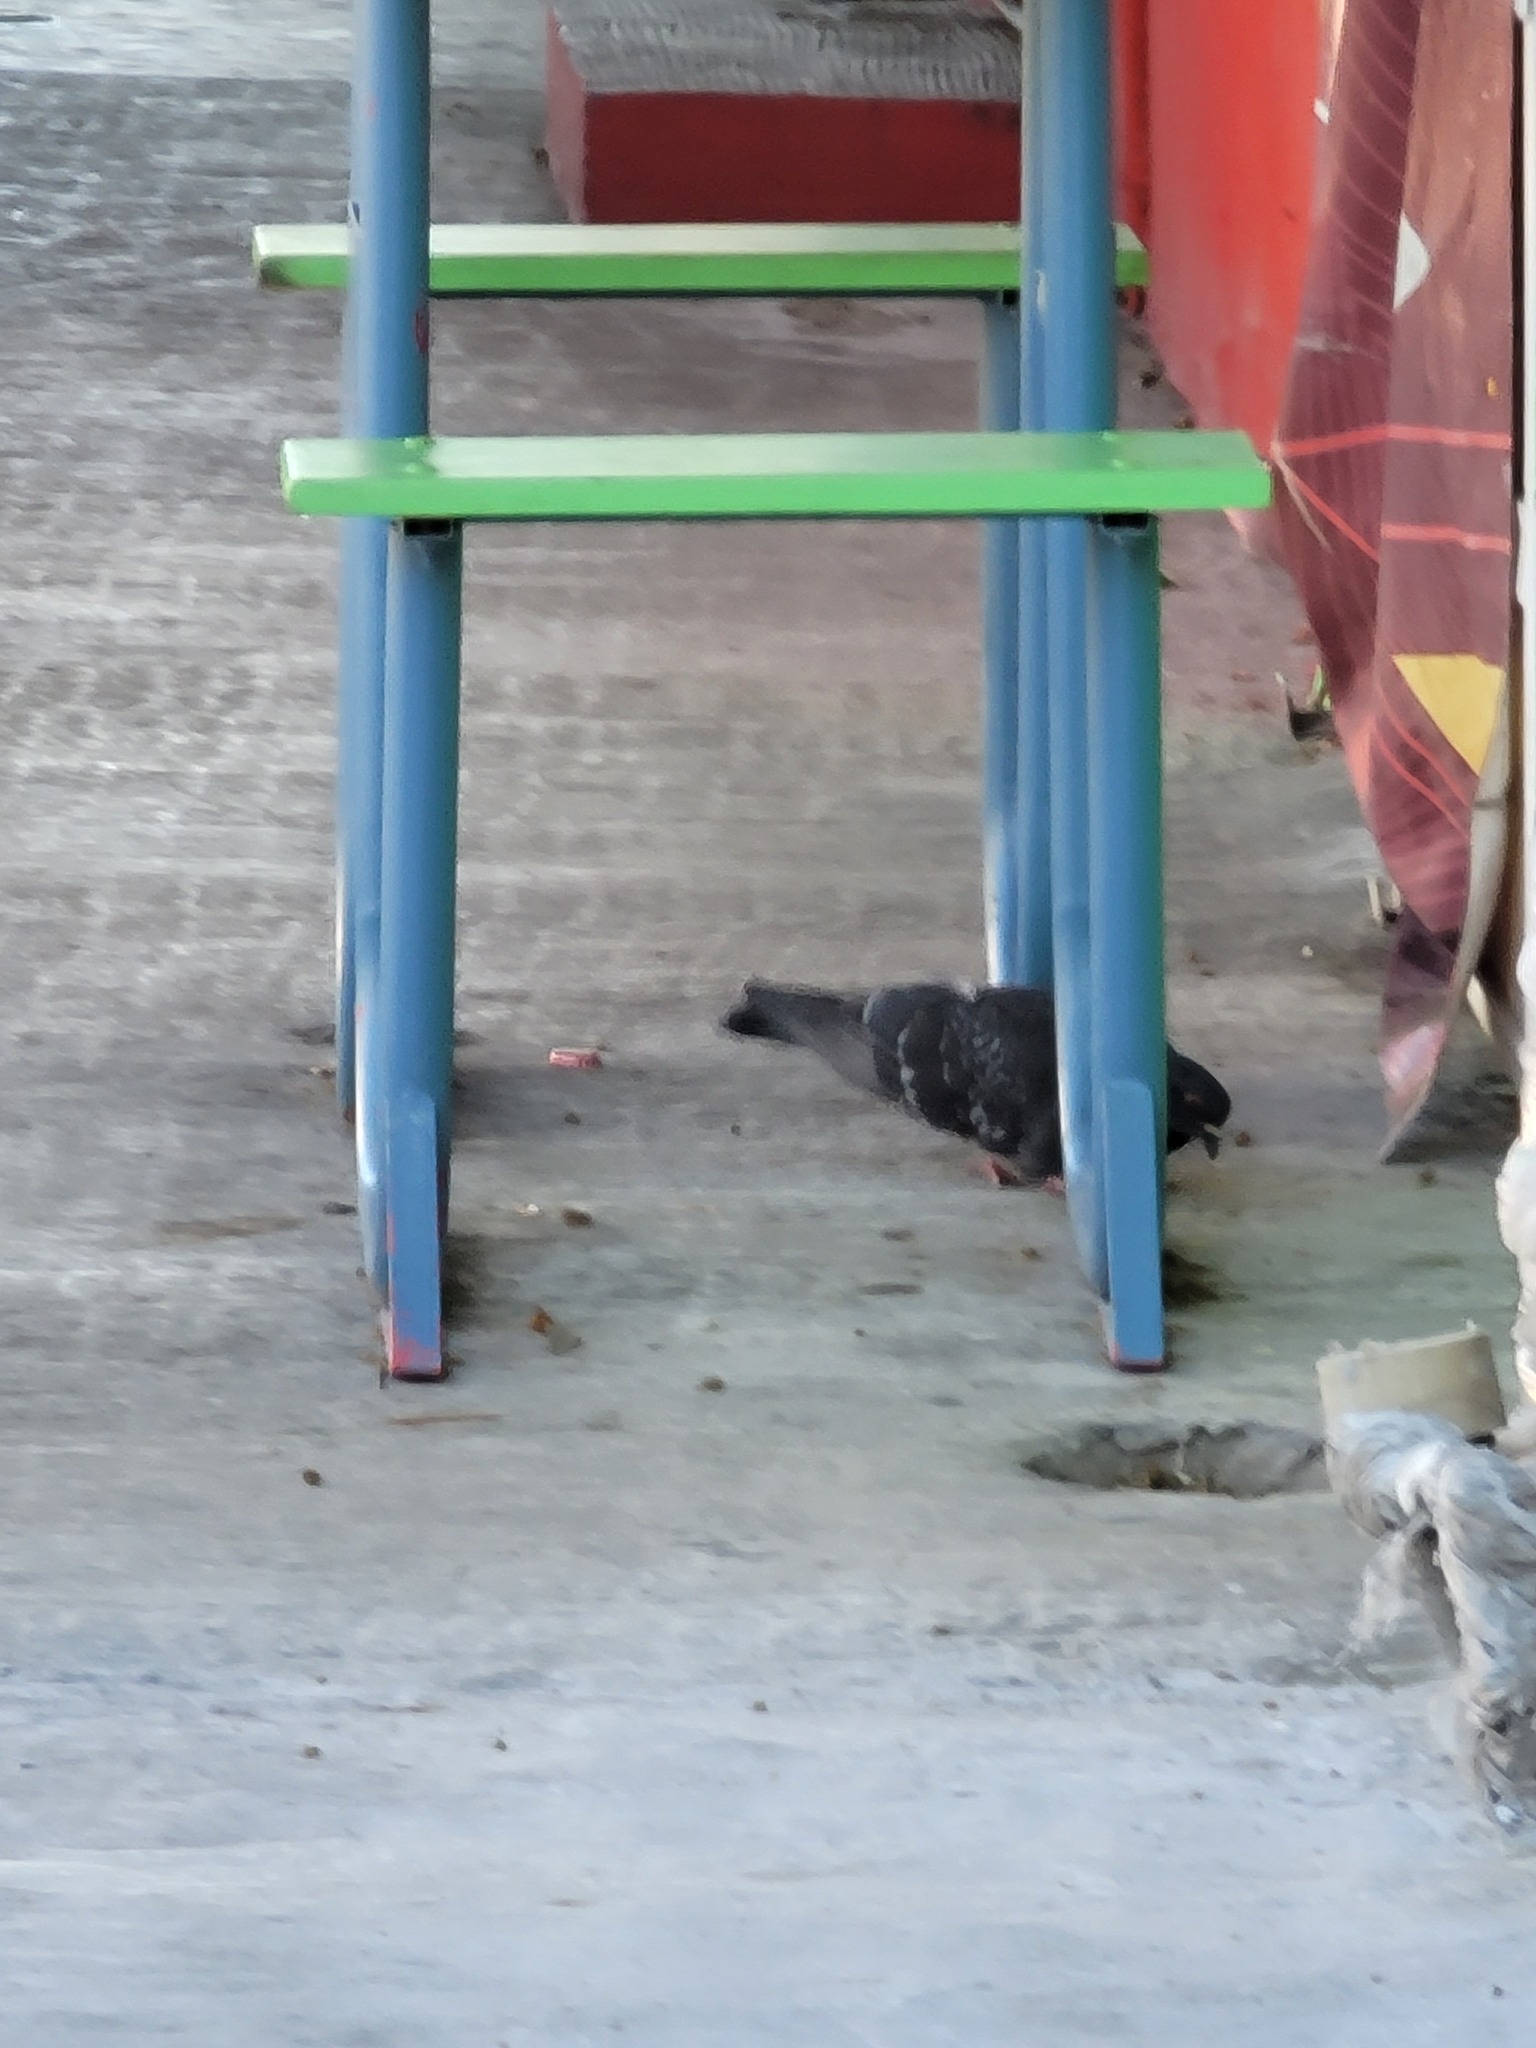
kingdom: Animalia
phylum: Chordata
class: Aves
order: Columbiformes
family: Columbidae
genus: Columba
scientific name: Columba livia
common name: Rock pigeon
